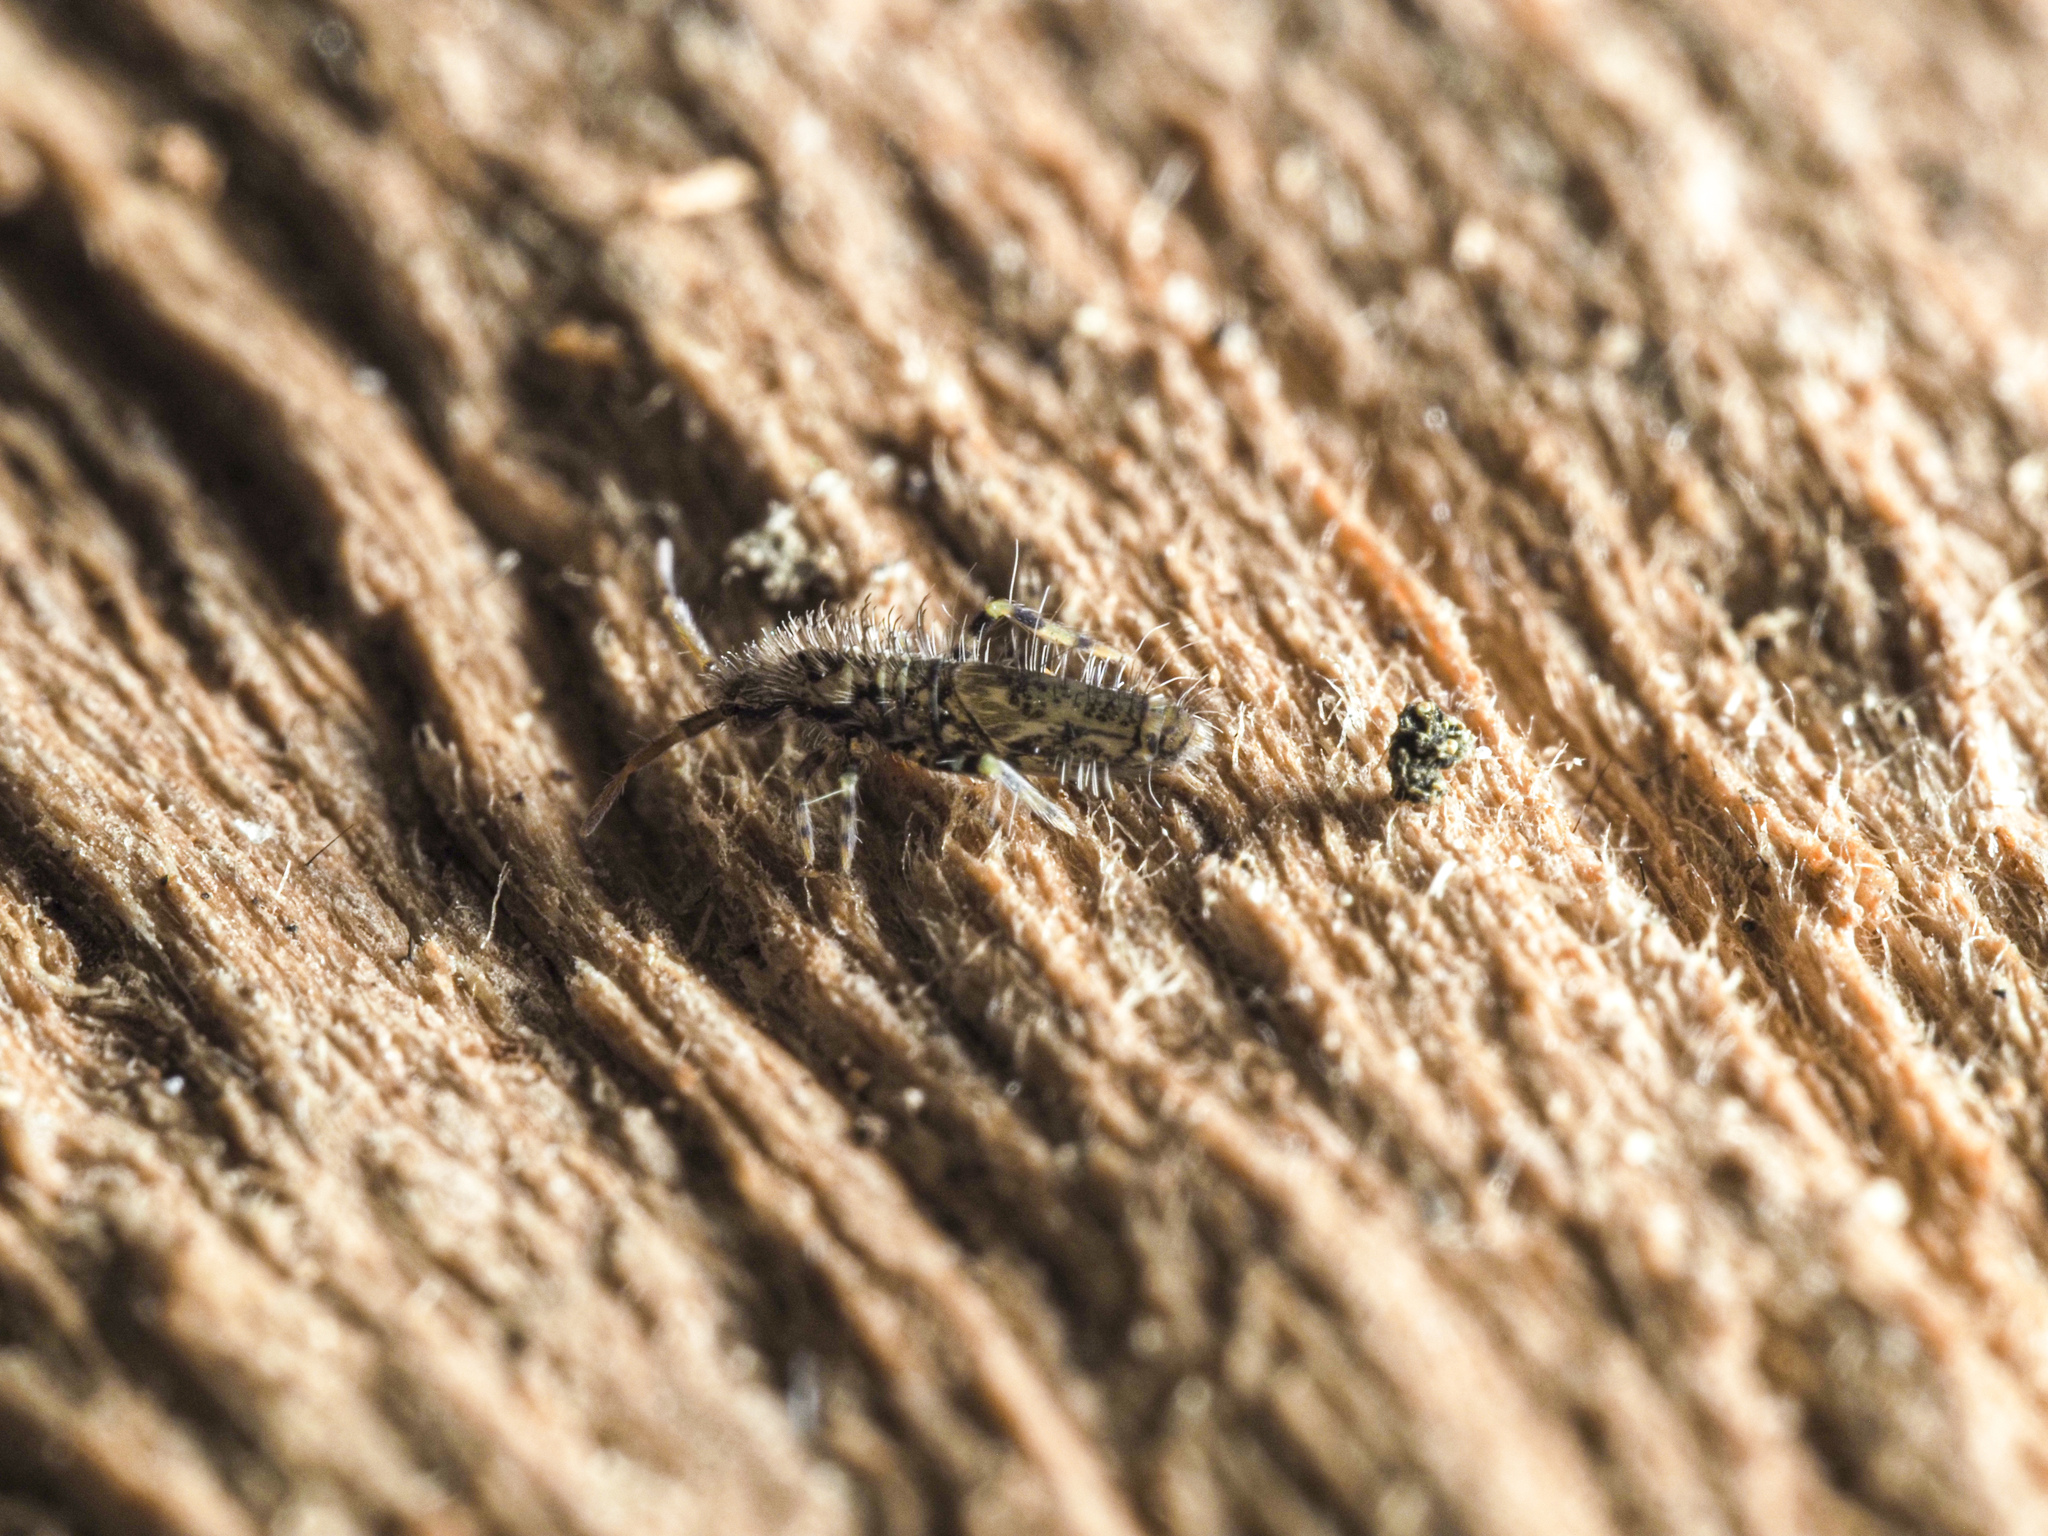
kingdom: Animalia
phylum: Arthropoda
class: Collembola
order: Entomobryomorpha
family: Entomobryidae
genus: Entomobrya
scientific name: Entomobrya dorsalis
